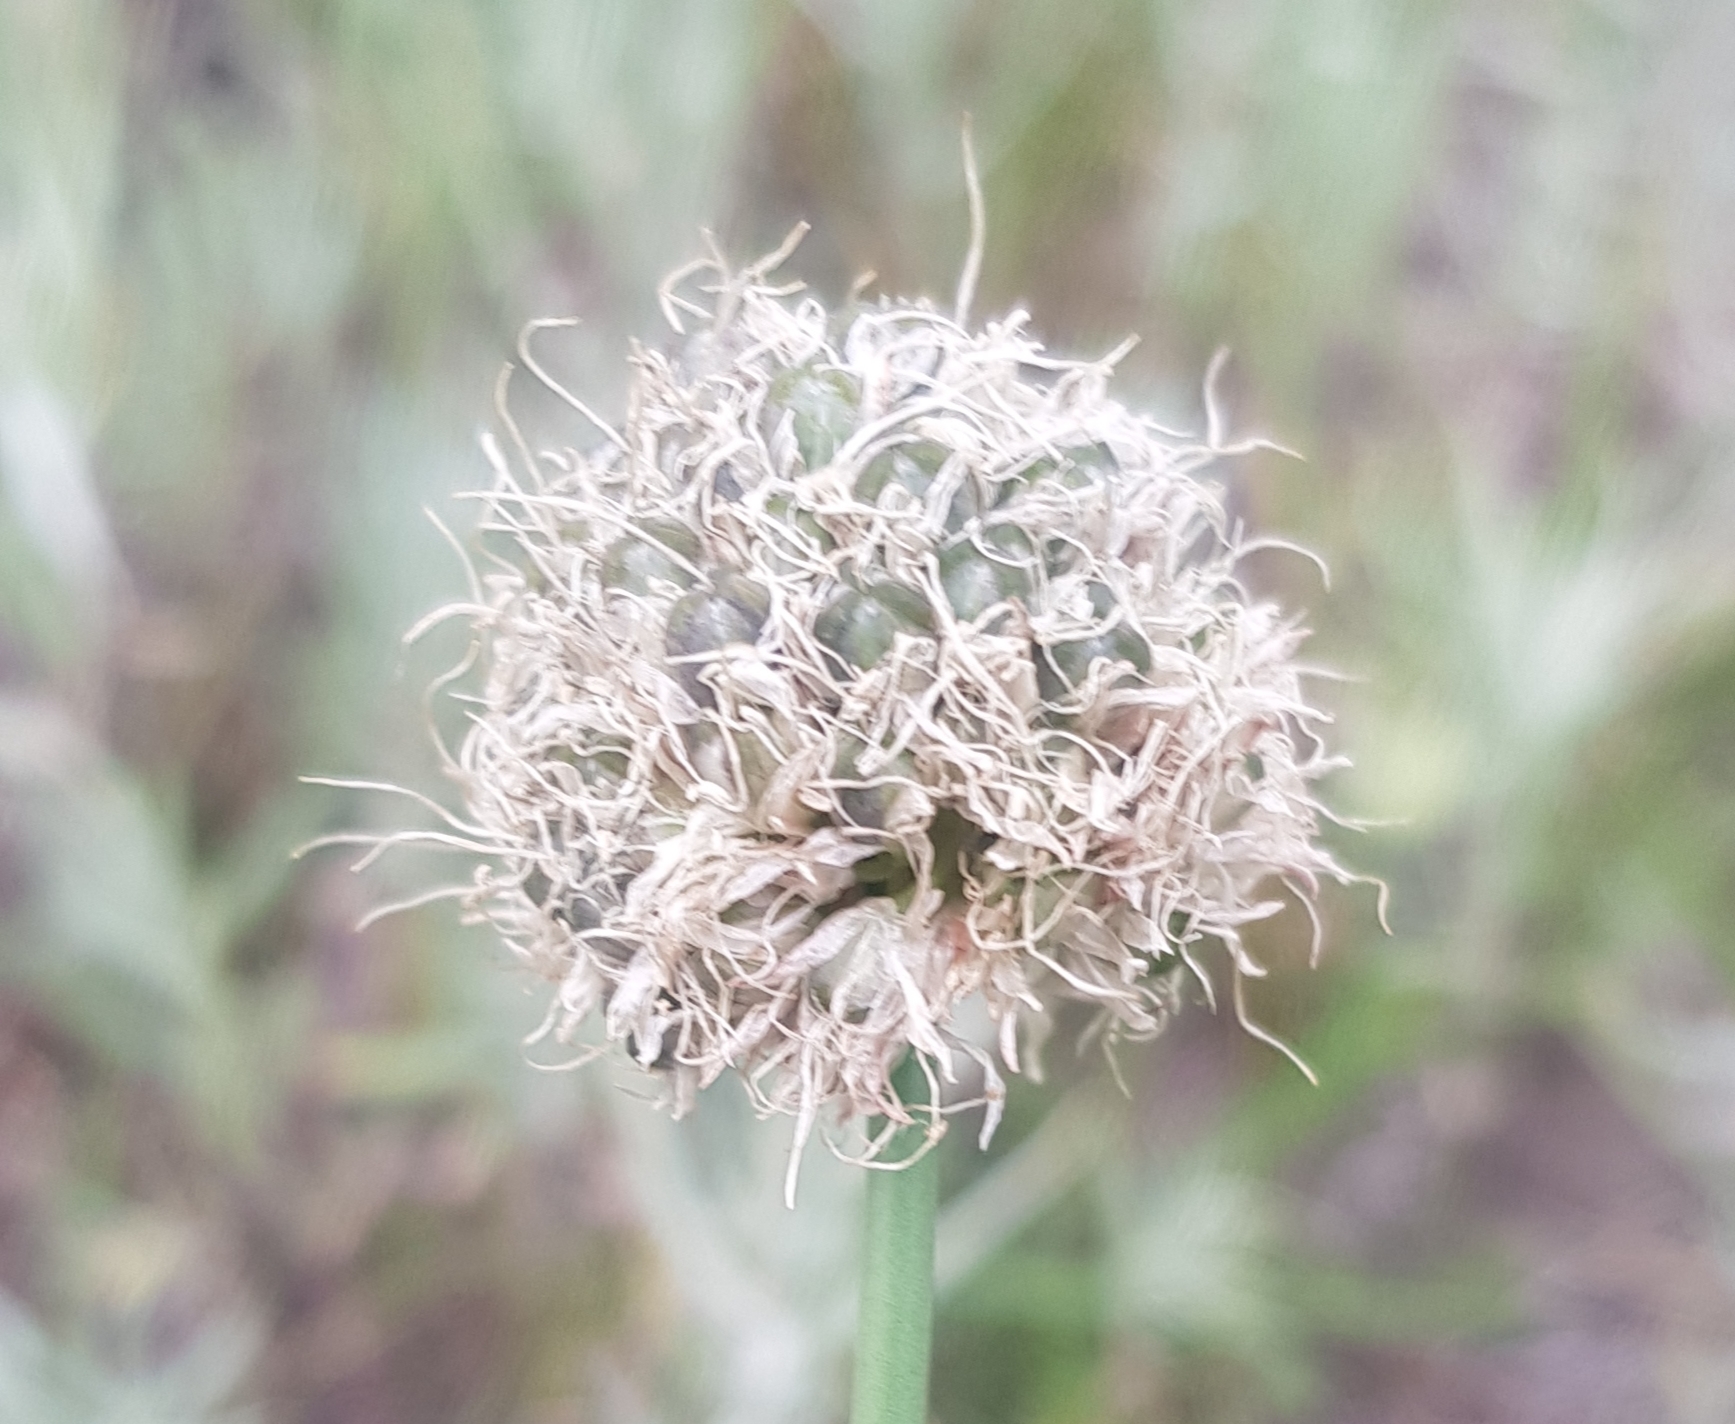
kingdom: Plantae
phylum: Tracheophyta
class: Liliopsida
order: Asparagales
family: Amaryllidaceae
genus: Allium
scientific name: Allium altaicum
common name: Altai onion
